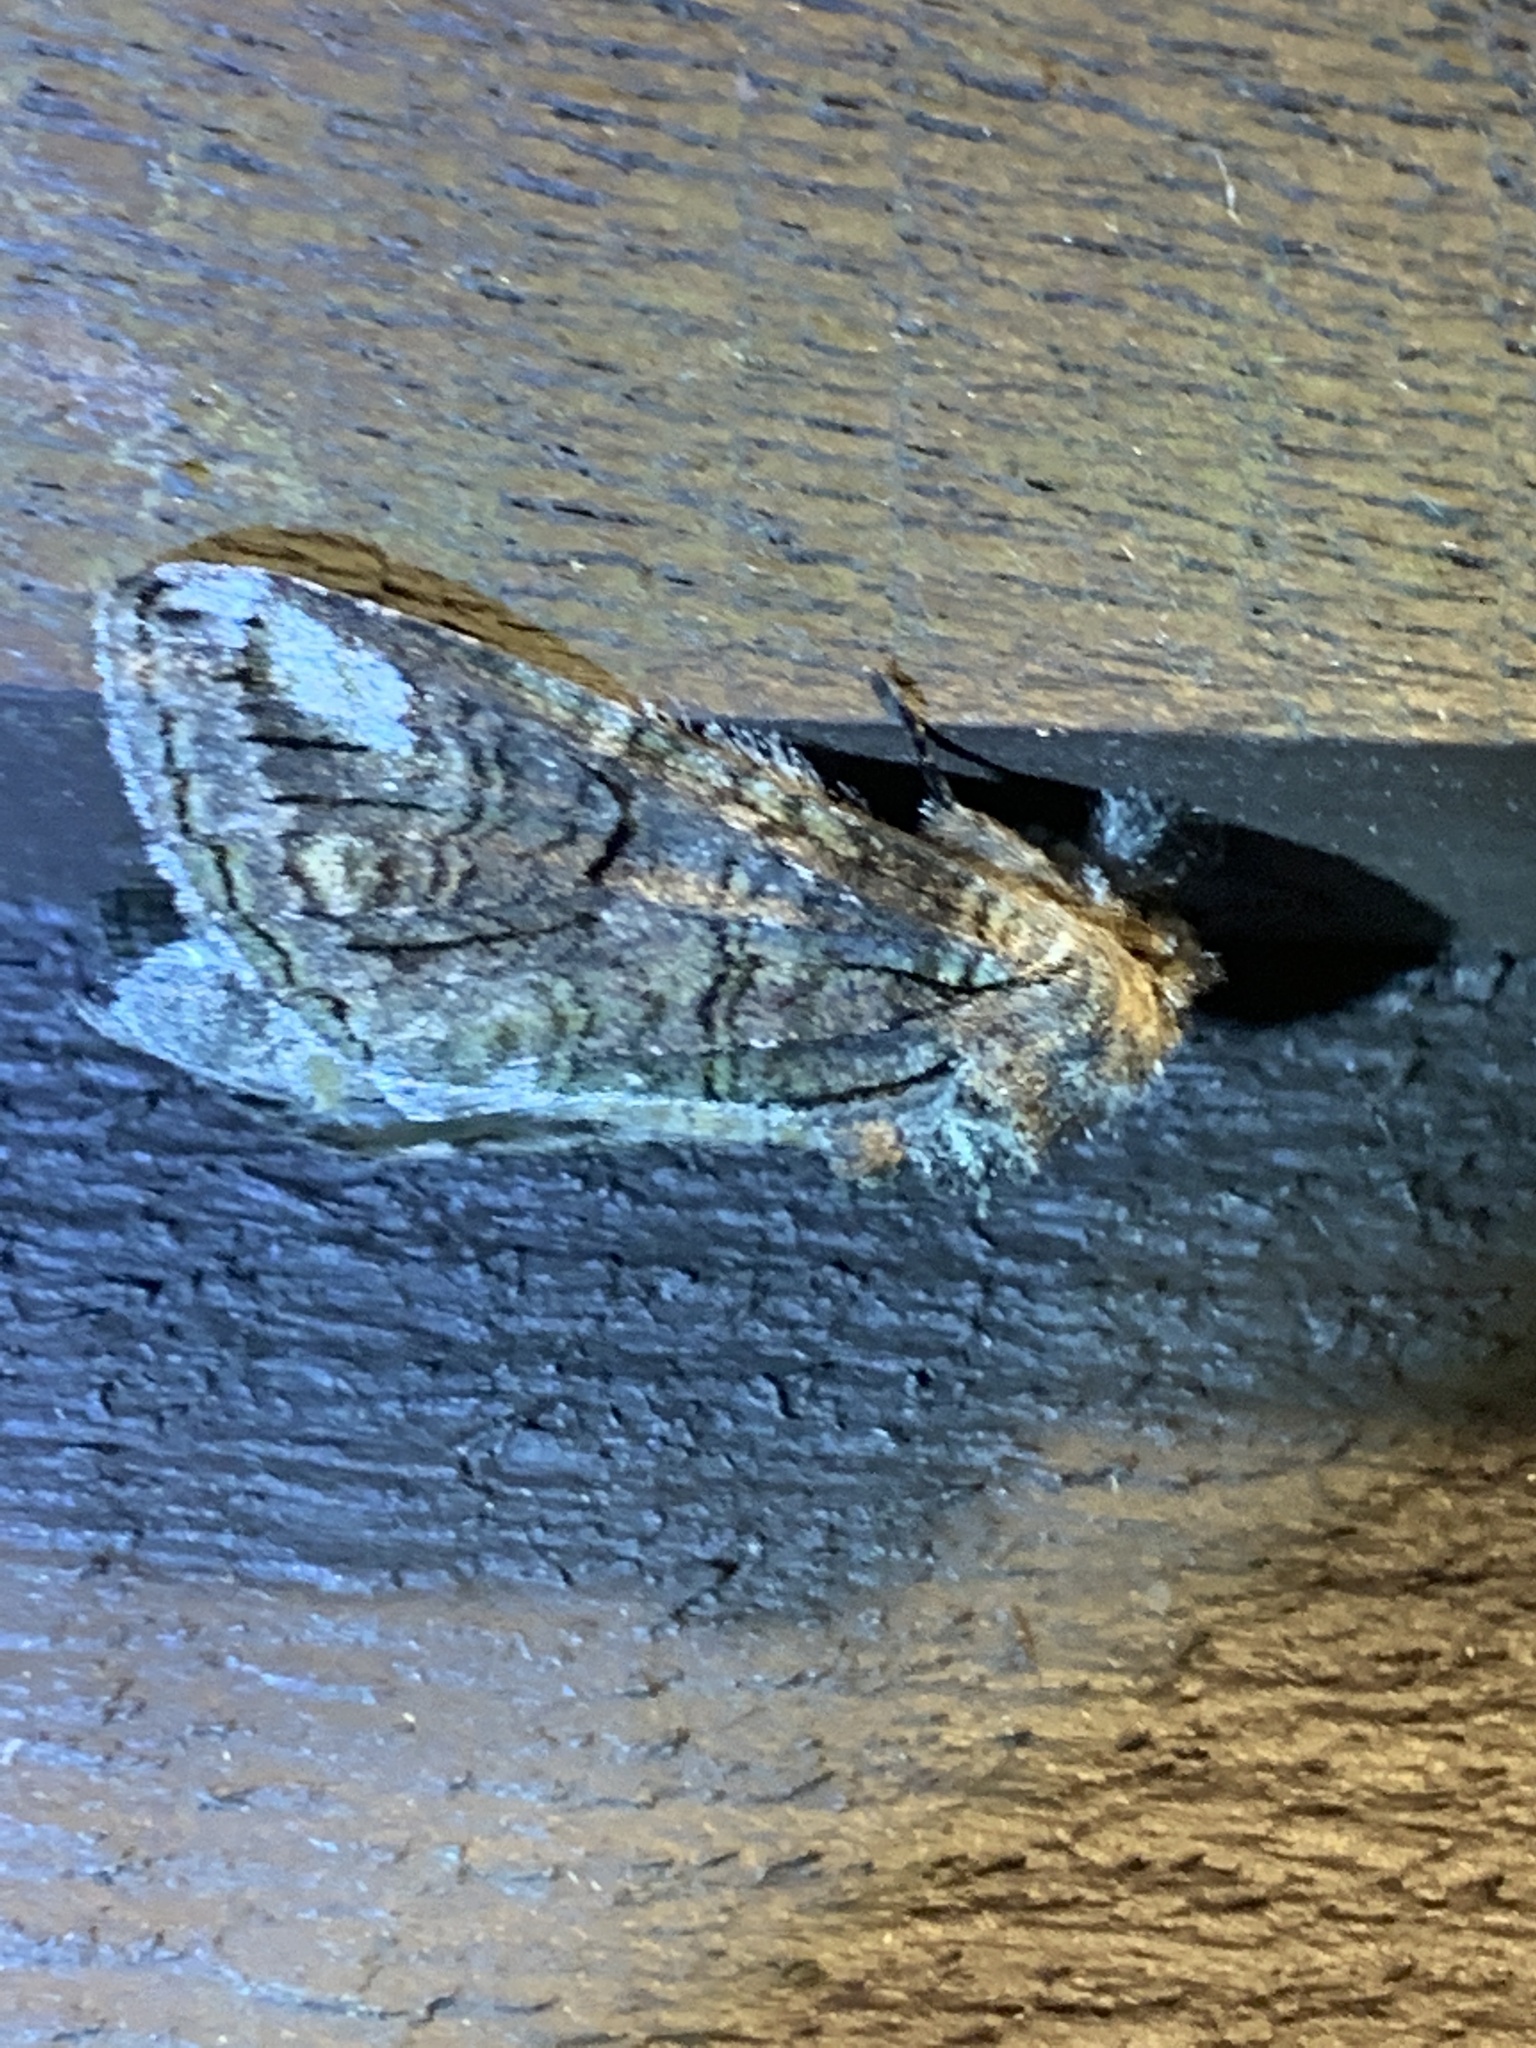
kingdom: Animalia
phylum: Arthropoda
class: Insecta
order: Lepidoptera
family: Notodontidae
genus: Heterocampa
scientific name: Heterocampa obliqua
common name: Oblique heterocampa
